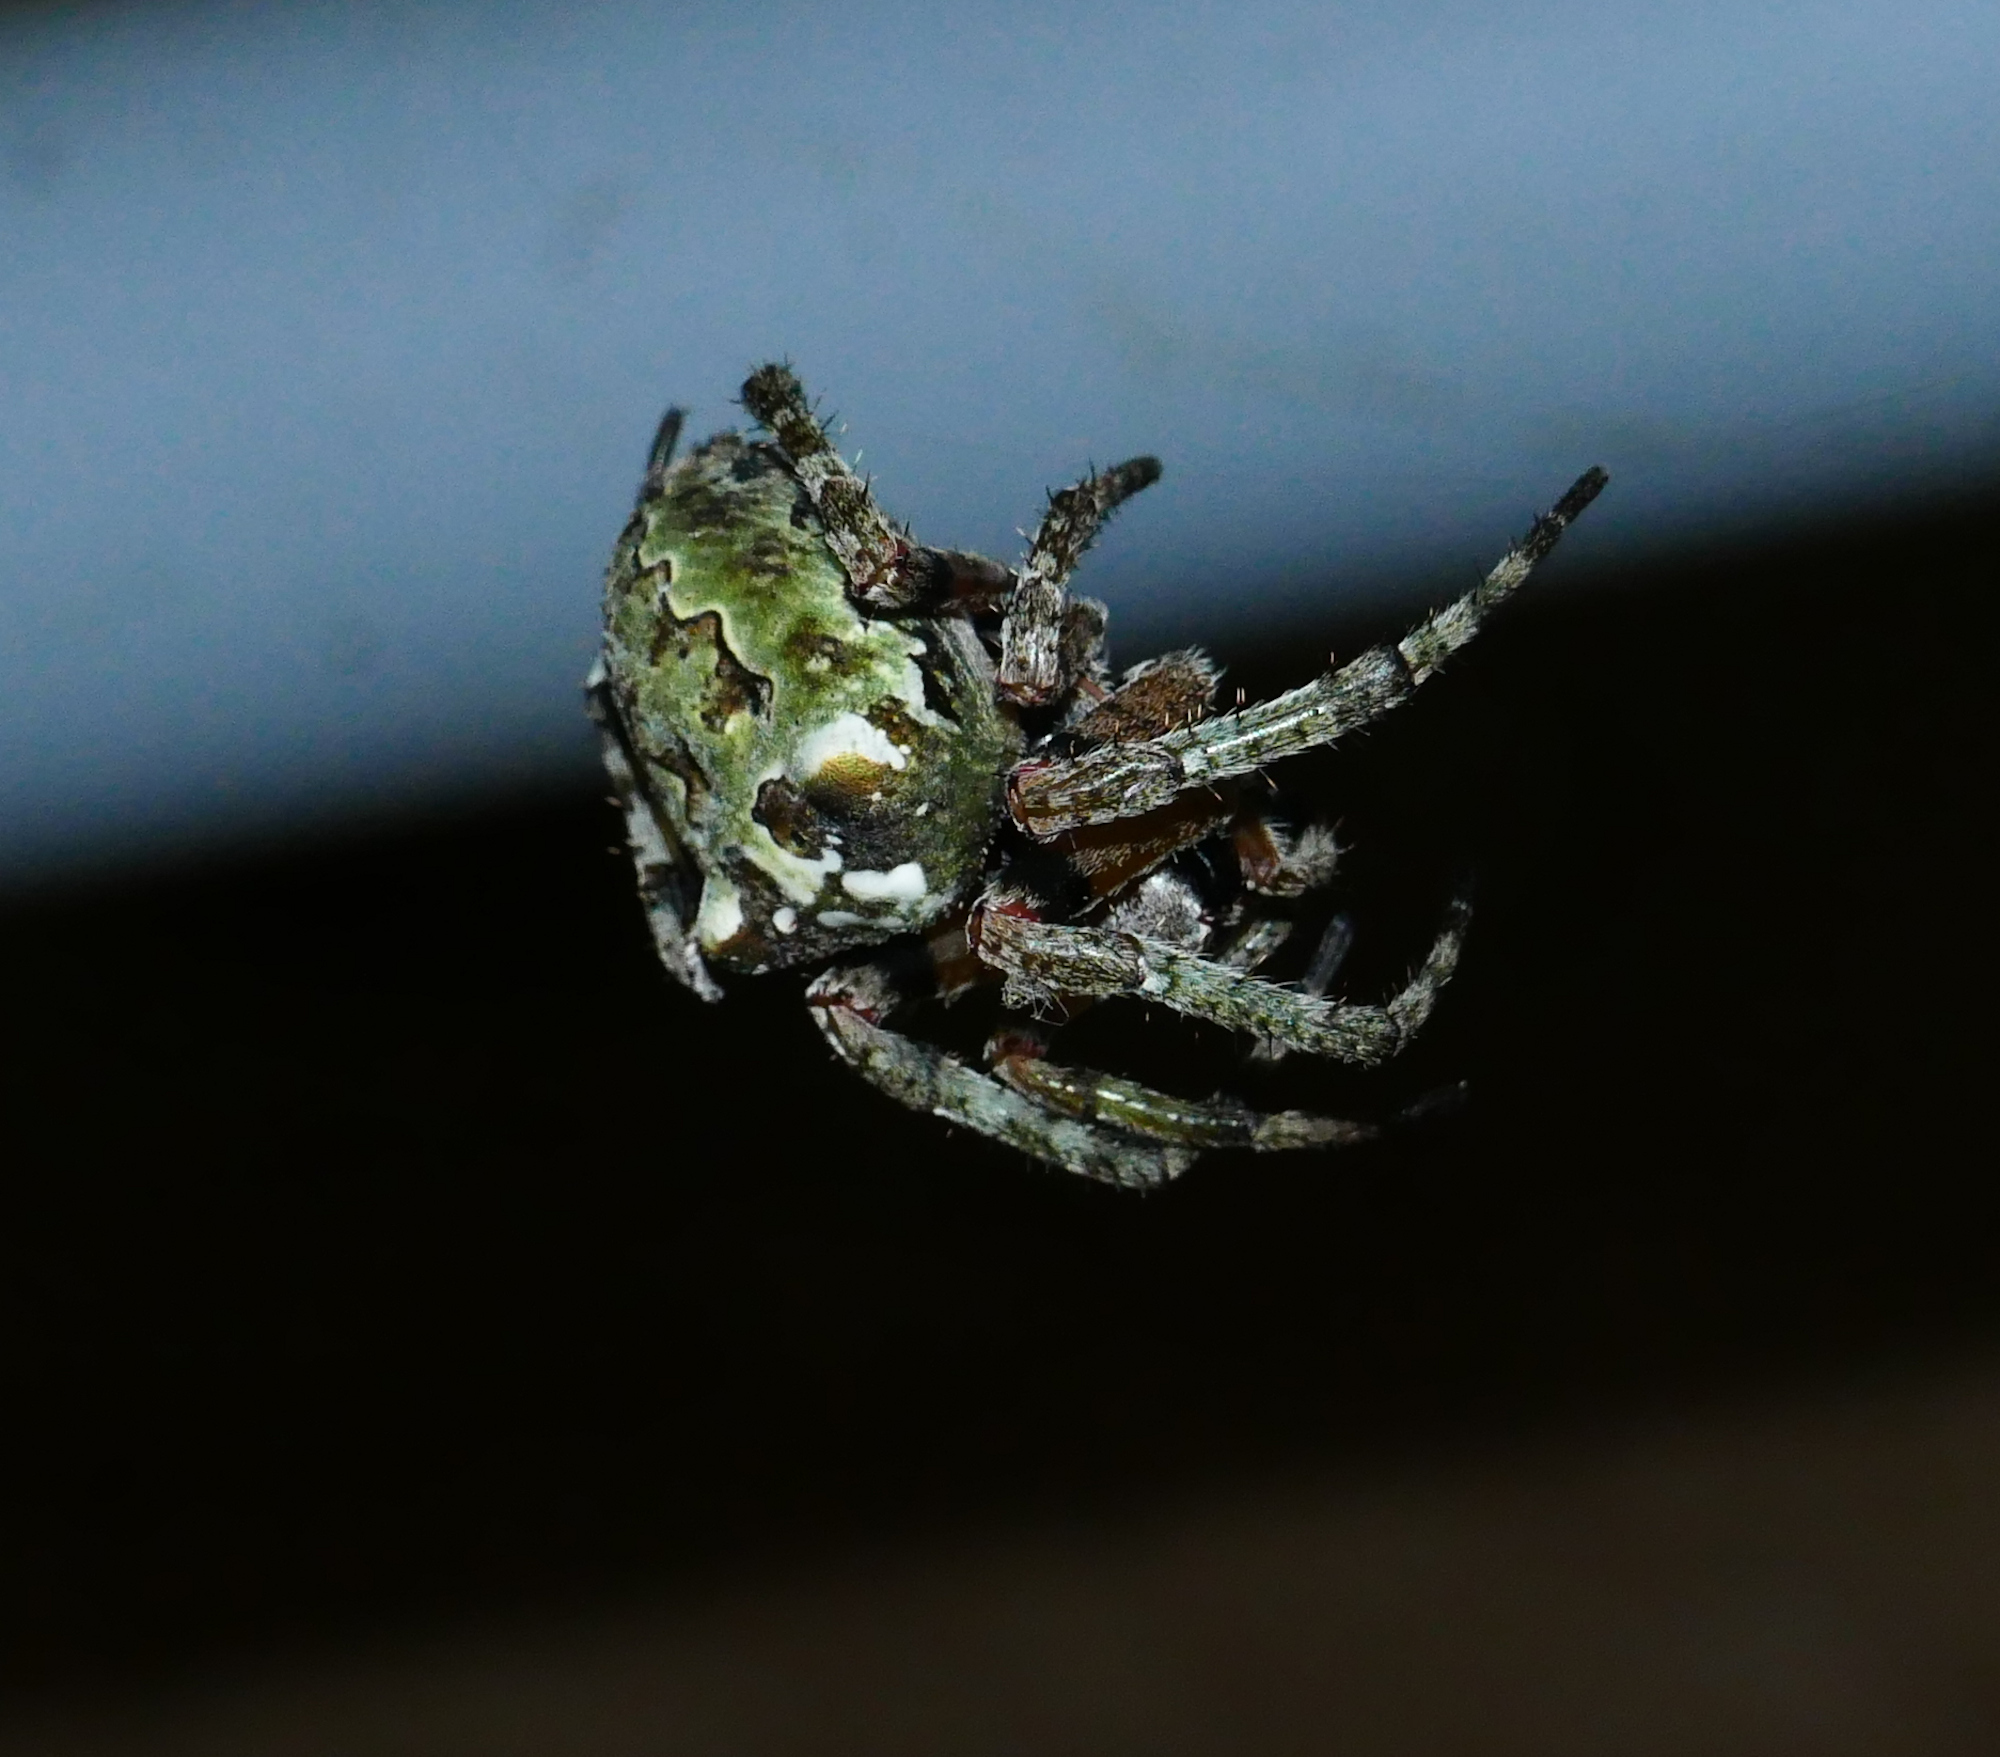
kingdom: Animalia
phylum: Arthropoda
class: Arachnida
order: Araneae
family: Araneidae
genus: Araneus
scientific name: Araneus bicentenarius
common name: Giant lichen orbweaver
